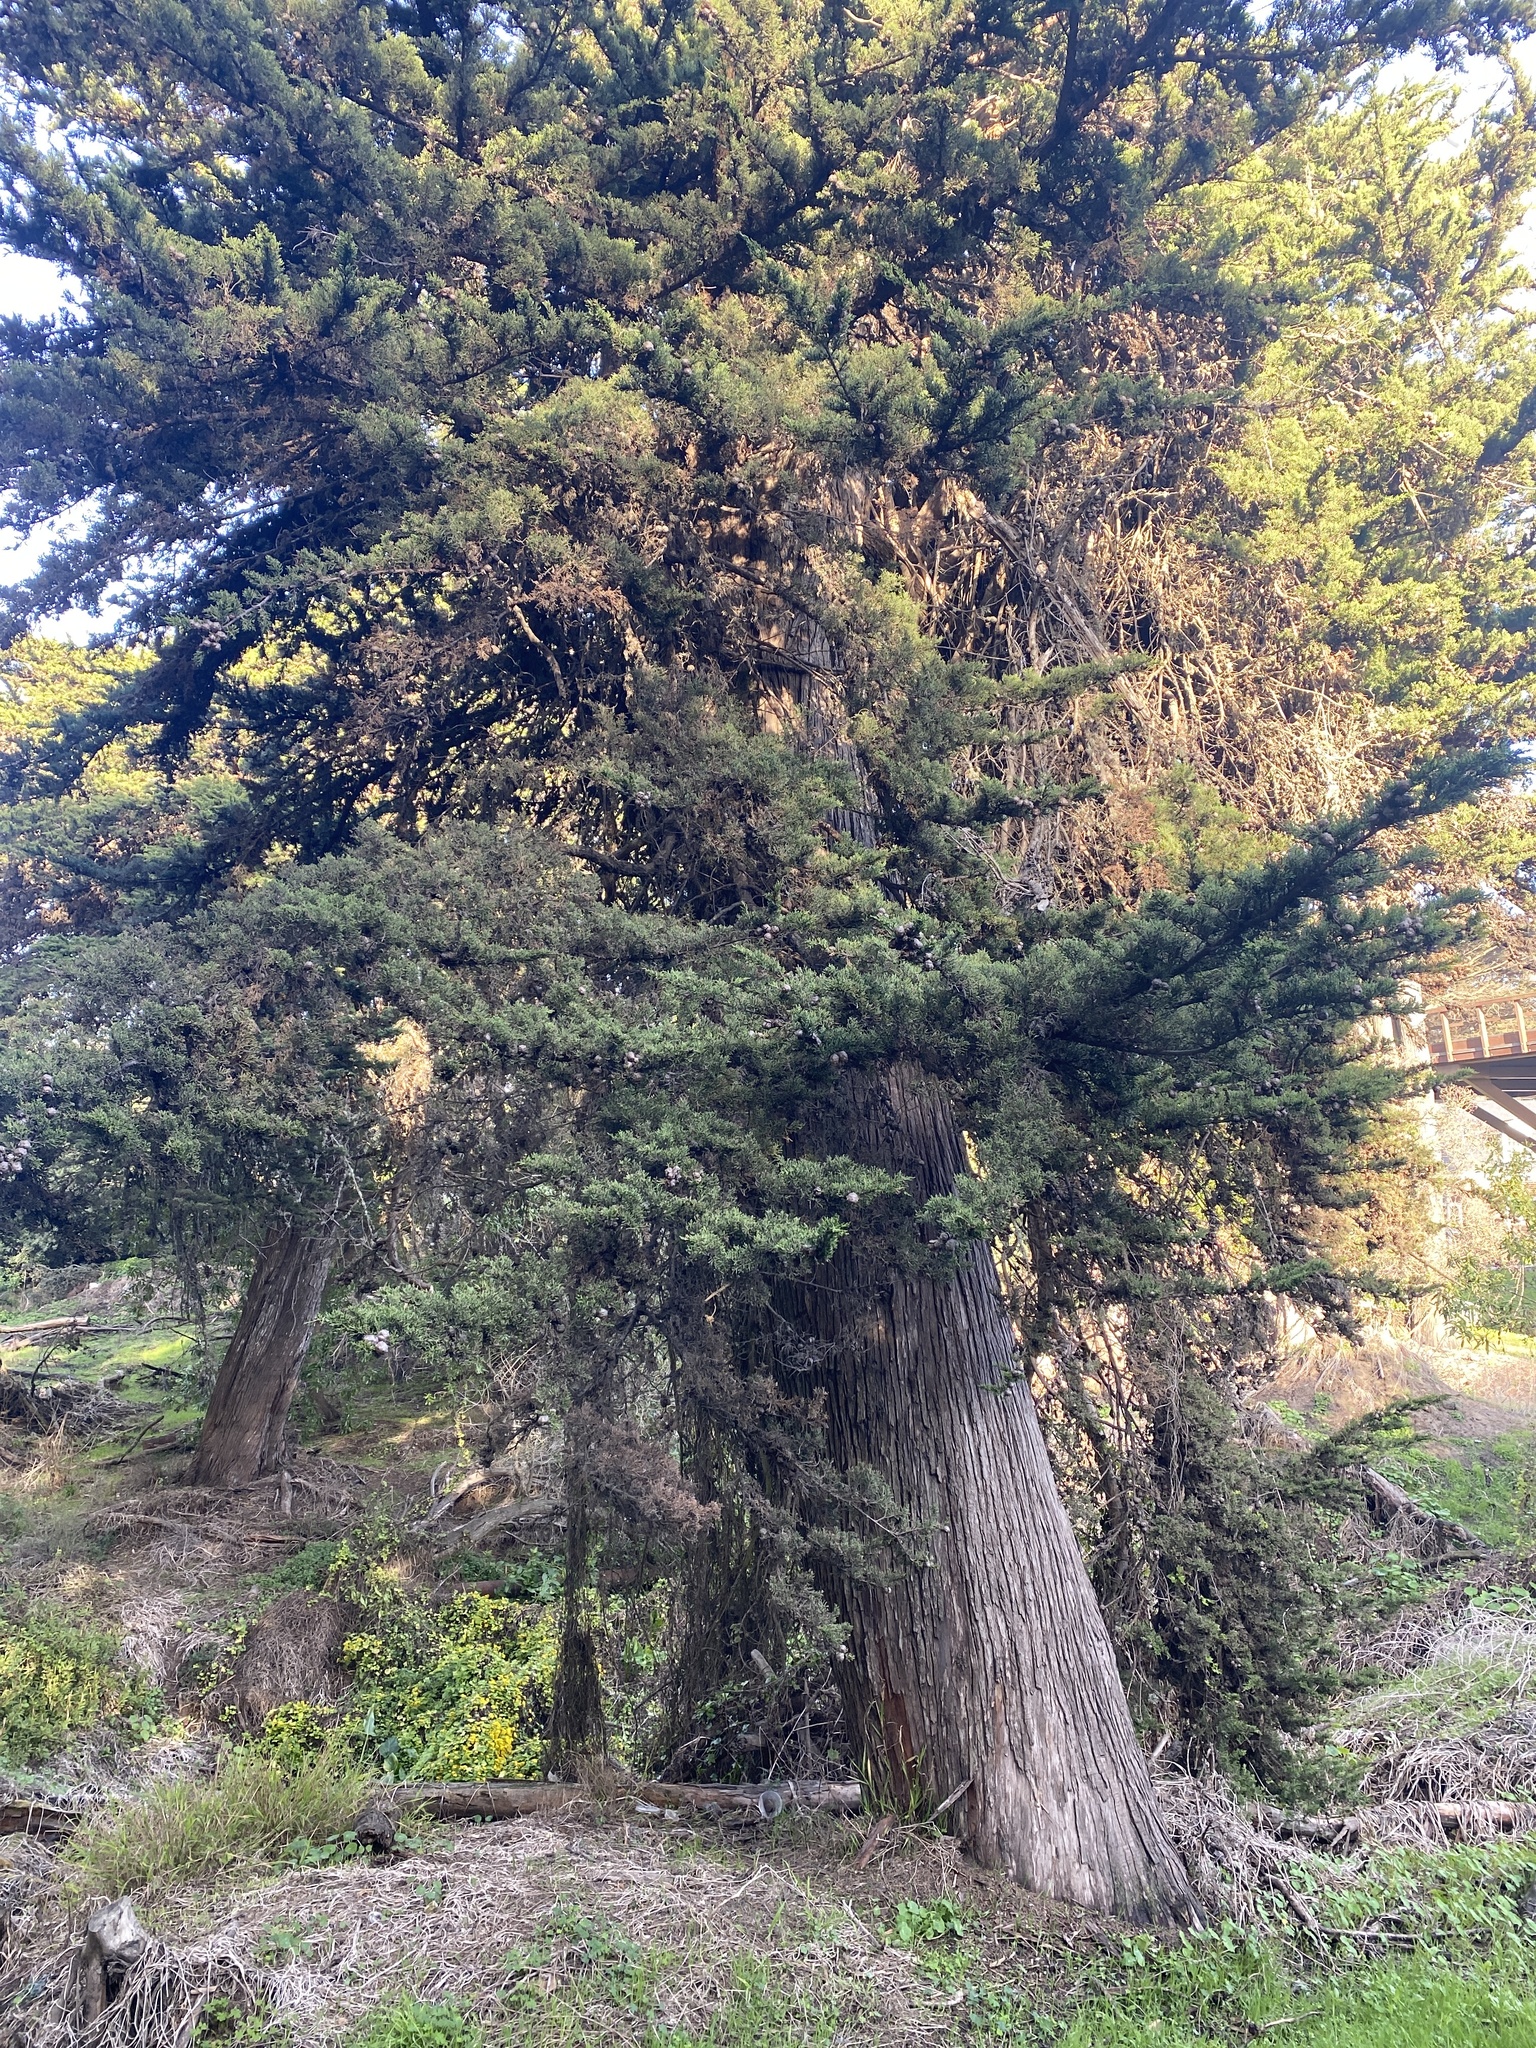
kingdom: Plantae
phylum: Tracheophyta
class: Pinopsida
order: Pinales
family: Cupressaceae
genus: Cupressus
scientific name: Cupressus macrocarpa
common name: Monterey cypress
